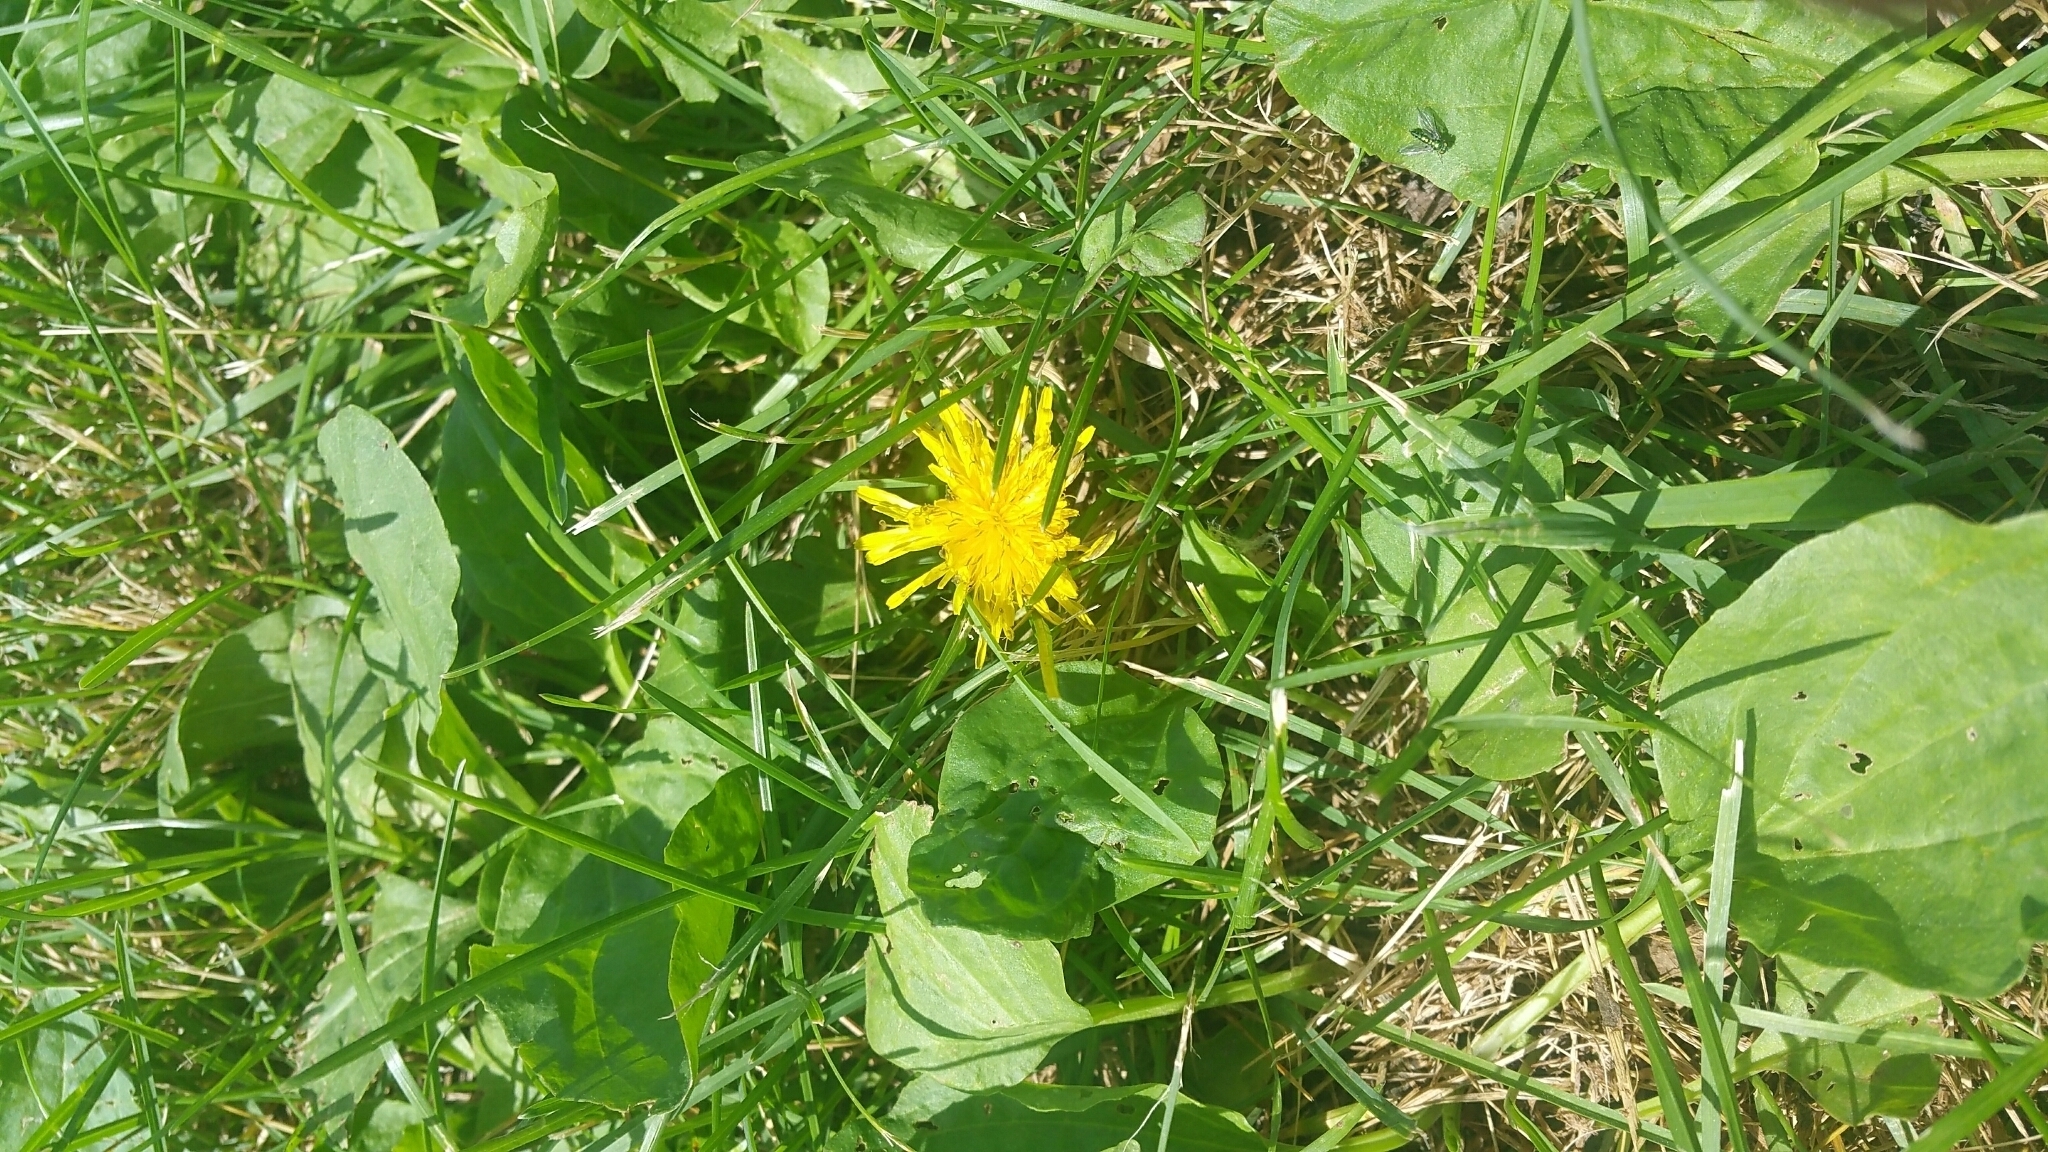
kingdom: Plantae
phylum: Tracheophyta
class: Magnoliopsida
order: Asterales
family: Asteraceae
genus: Taraxacum
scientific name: Taraxacum officinale
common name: Common dandelion
